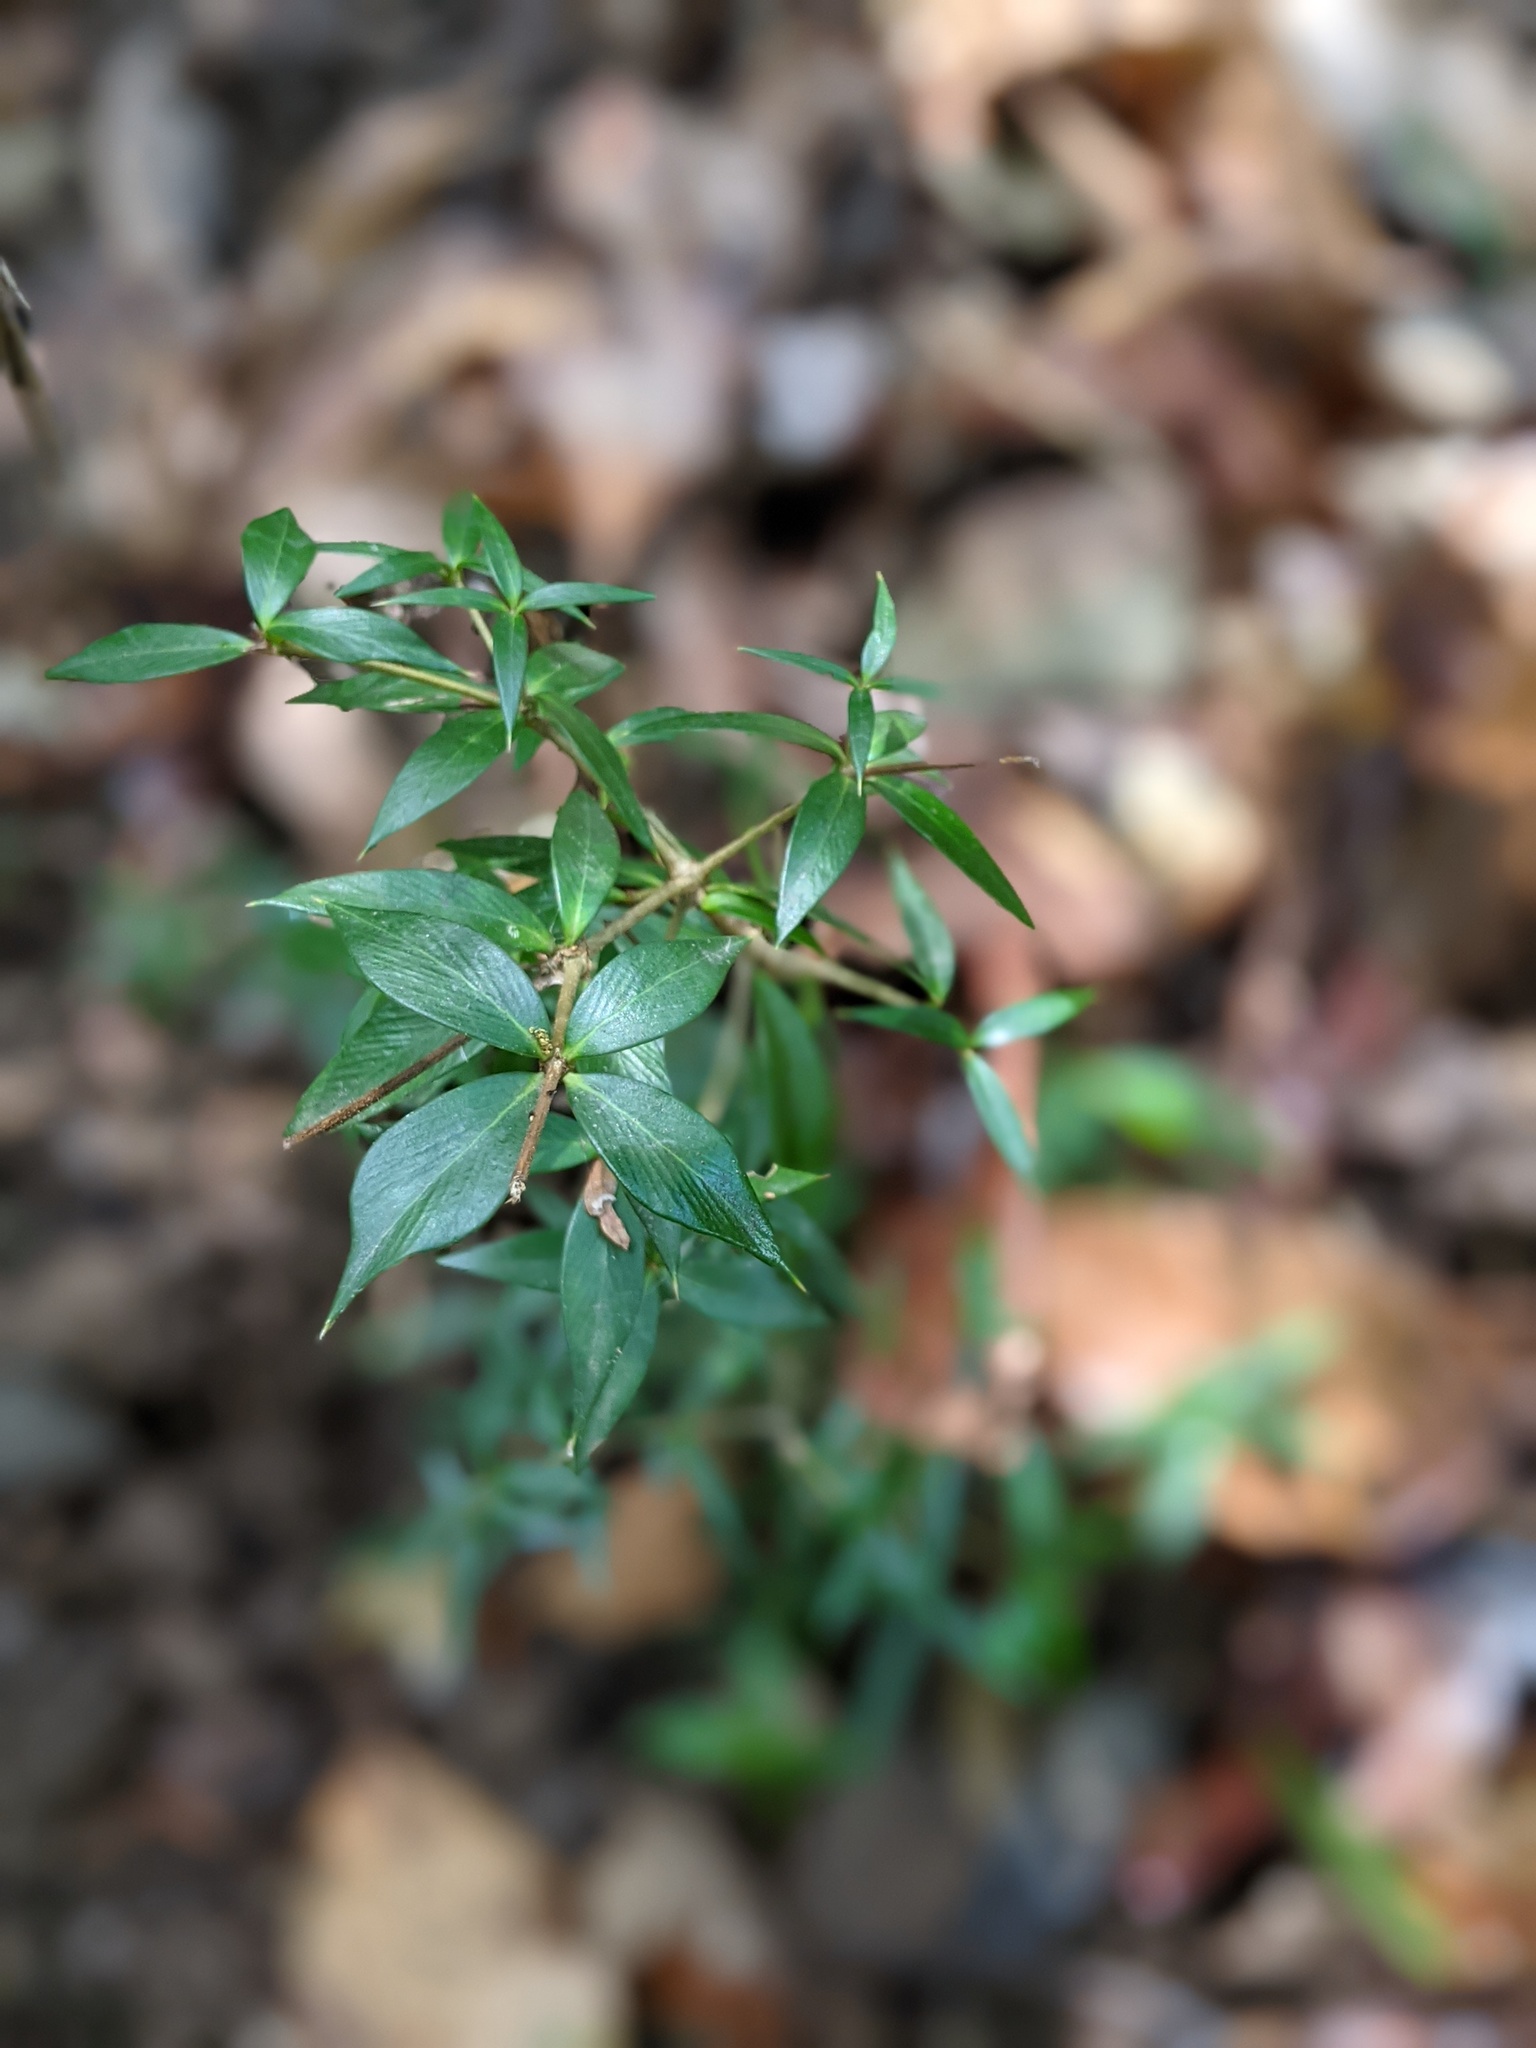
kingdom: Plantae
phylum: Tracheophyta
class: Magnoliopsida
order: Gentianales
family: Apocynaceae
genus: Alyxia
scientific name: Alyxia ruscifolia
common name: Chainfruit
